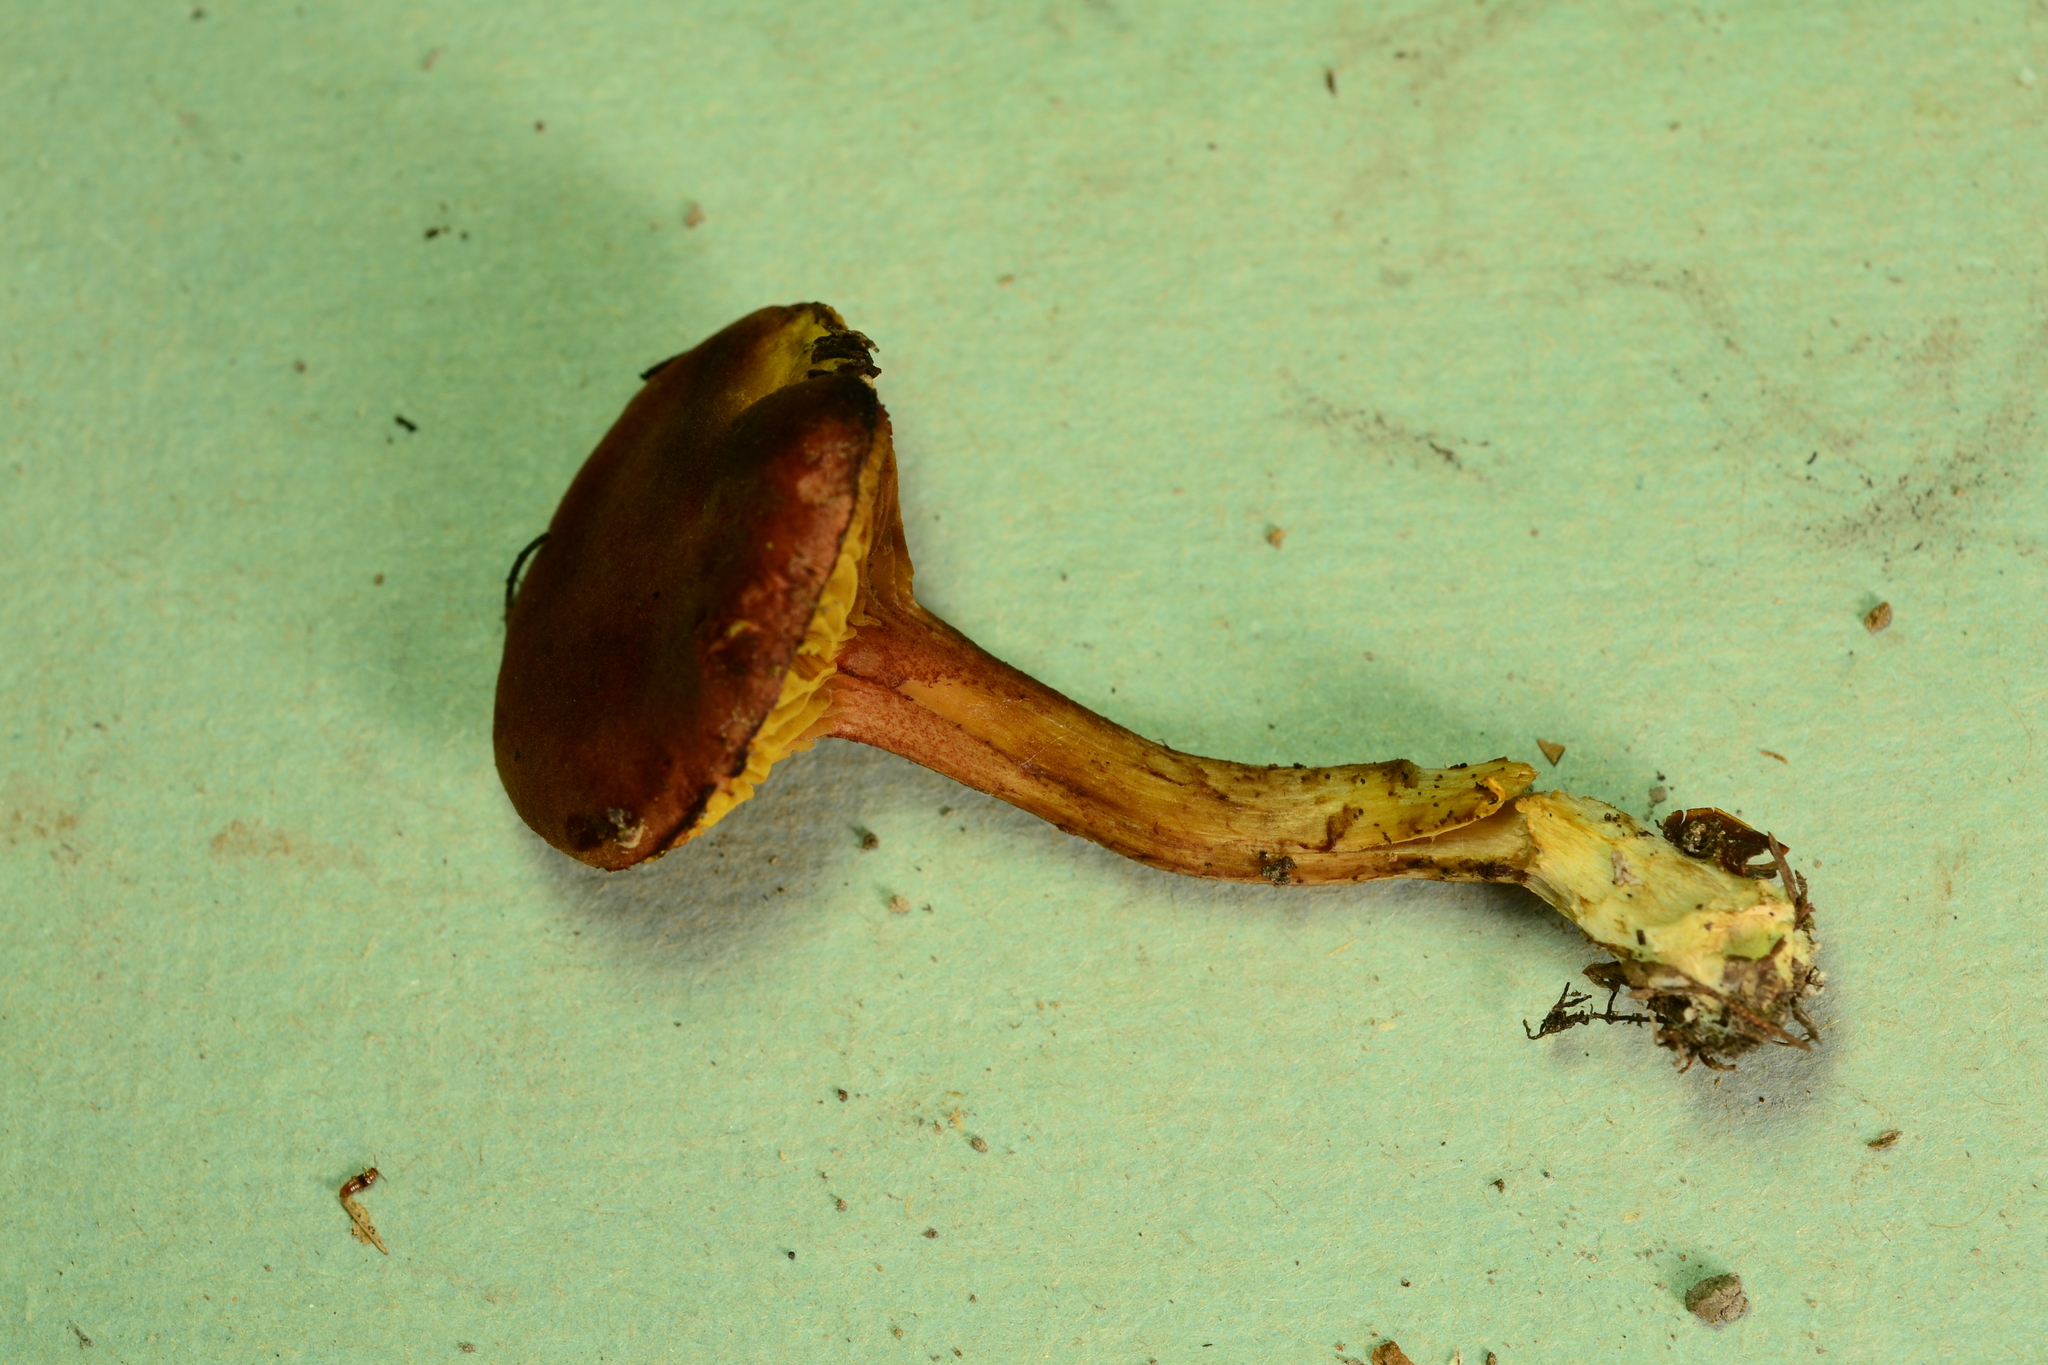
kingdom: Fungi
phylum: Basidiomycota
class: Agaricomycetes
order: Boletales
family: Boletaceae
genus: Phylloporus
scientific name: Phylloporus leucomycelinus
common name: Gilled bolete
